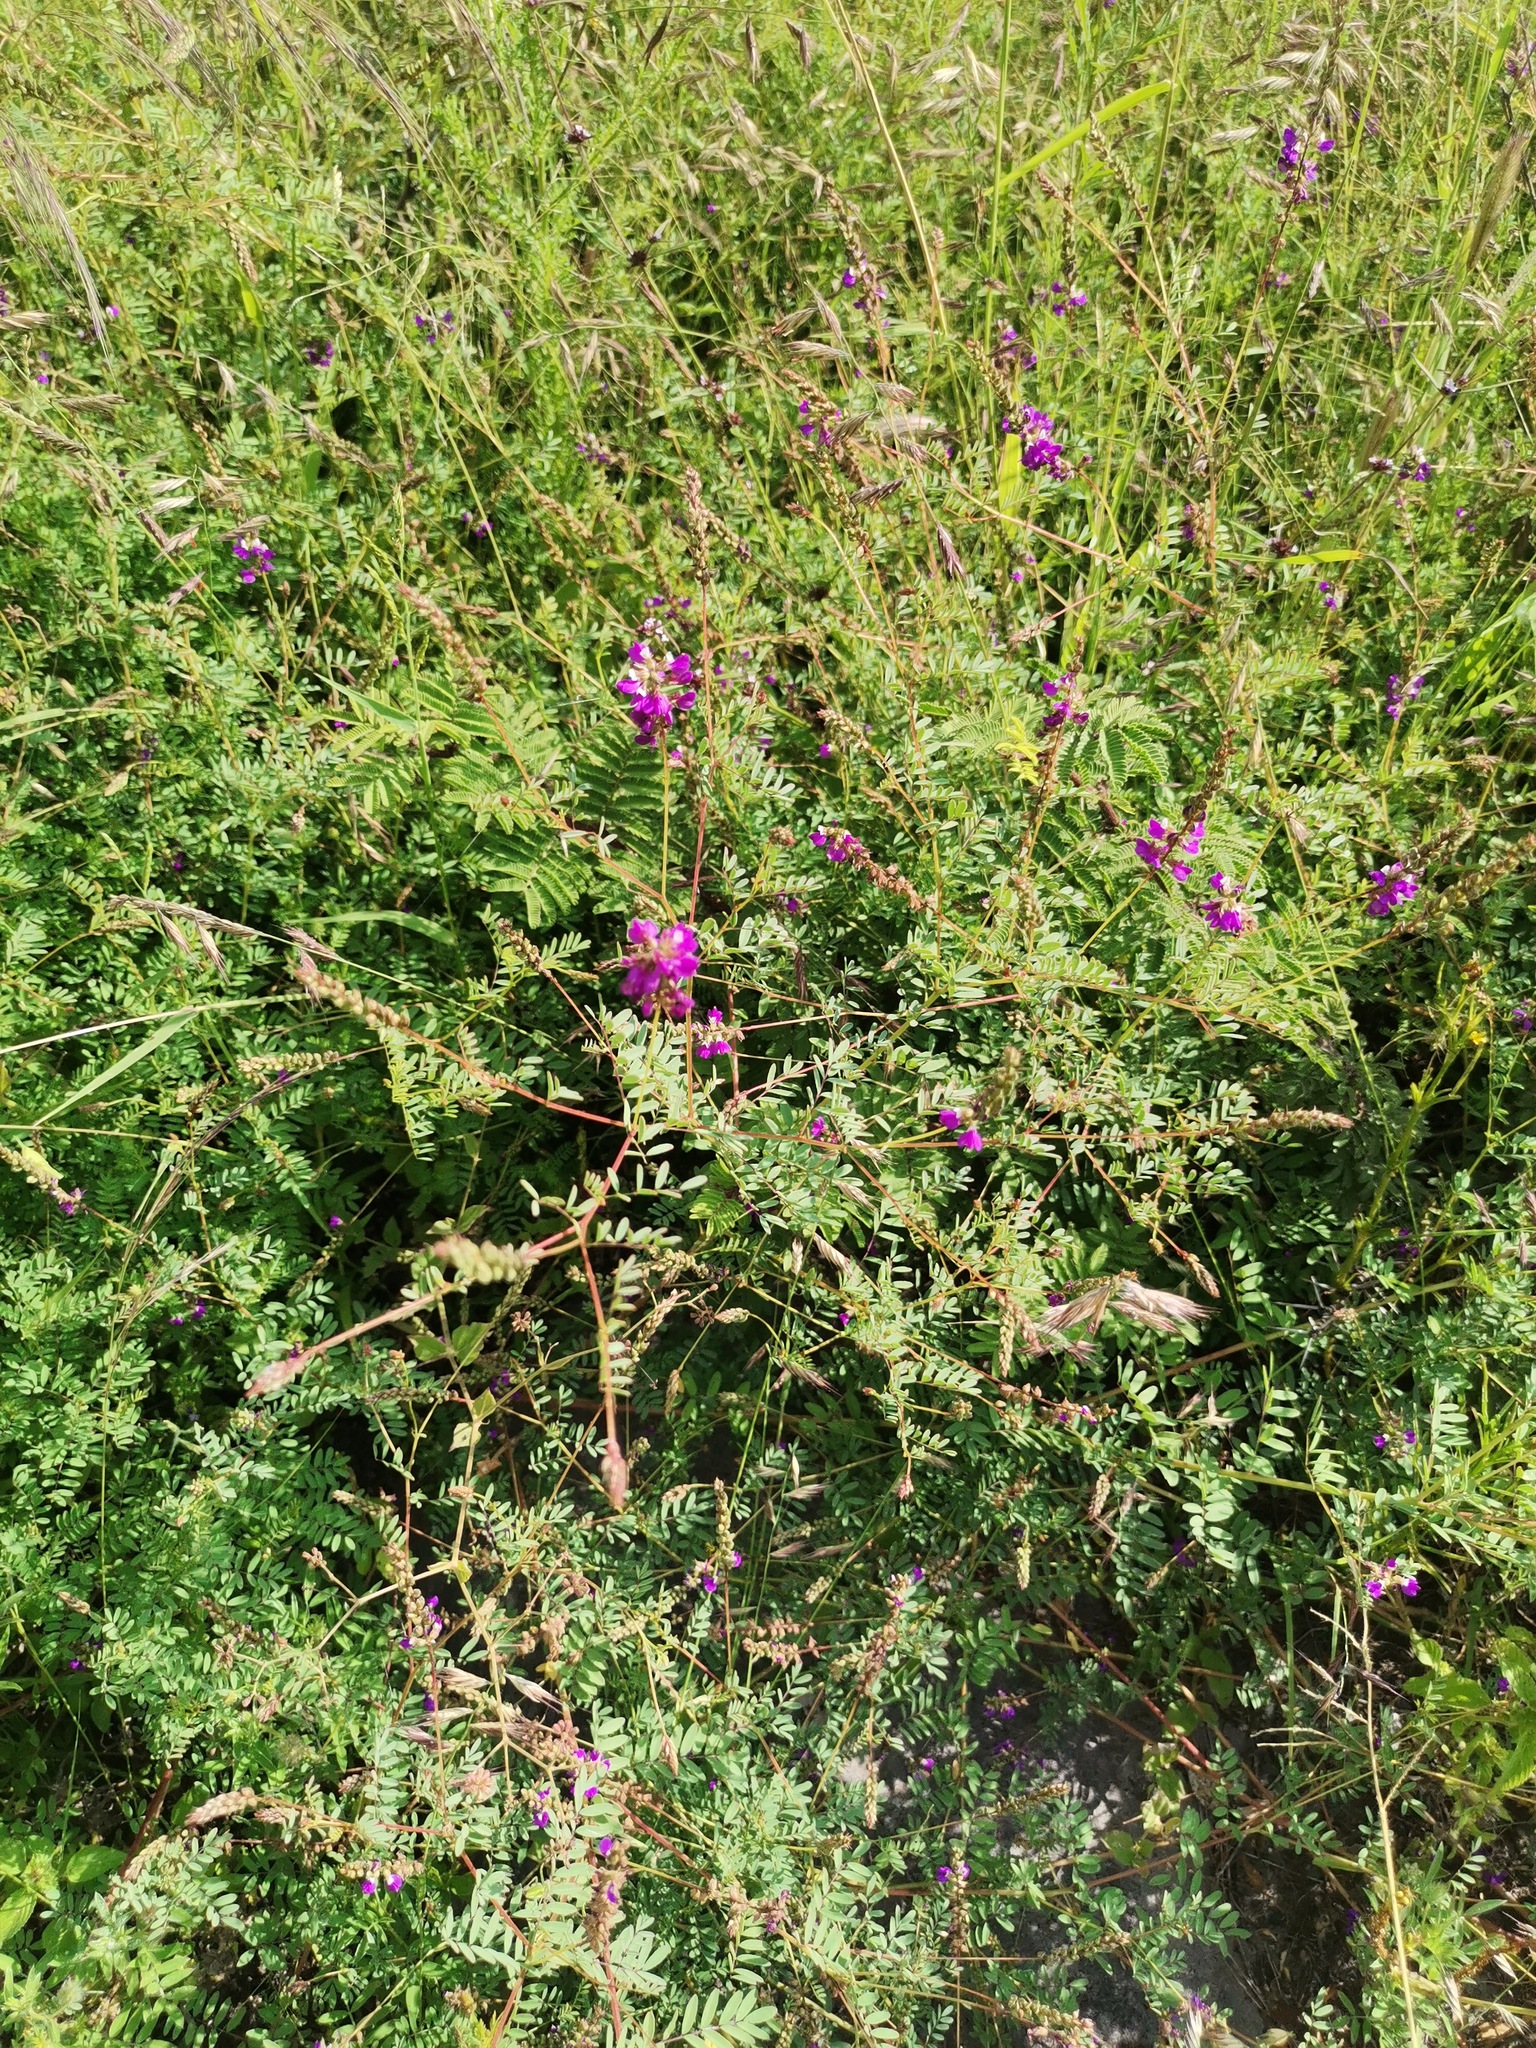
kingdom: Plantae
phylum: Tracheophyta
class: Magnoliopsida
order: Fabales
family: Fabaceae
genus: Dalea
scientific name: Dalea bicolor
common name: Silver prairie-clover
